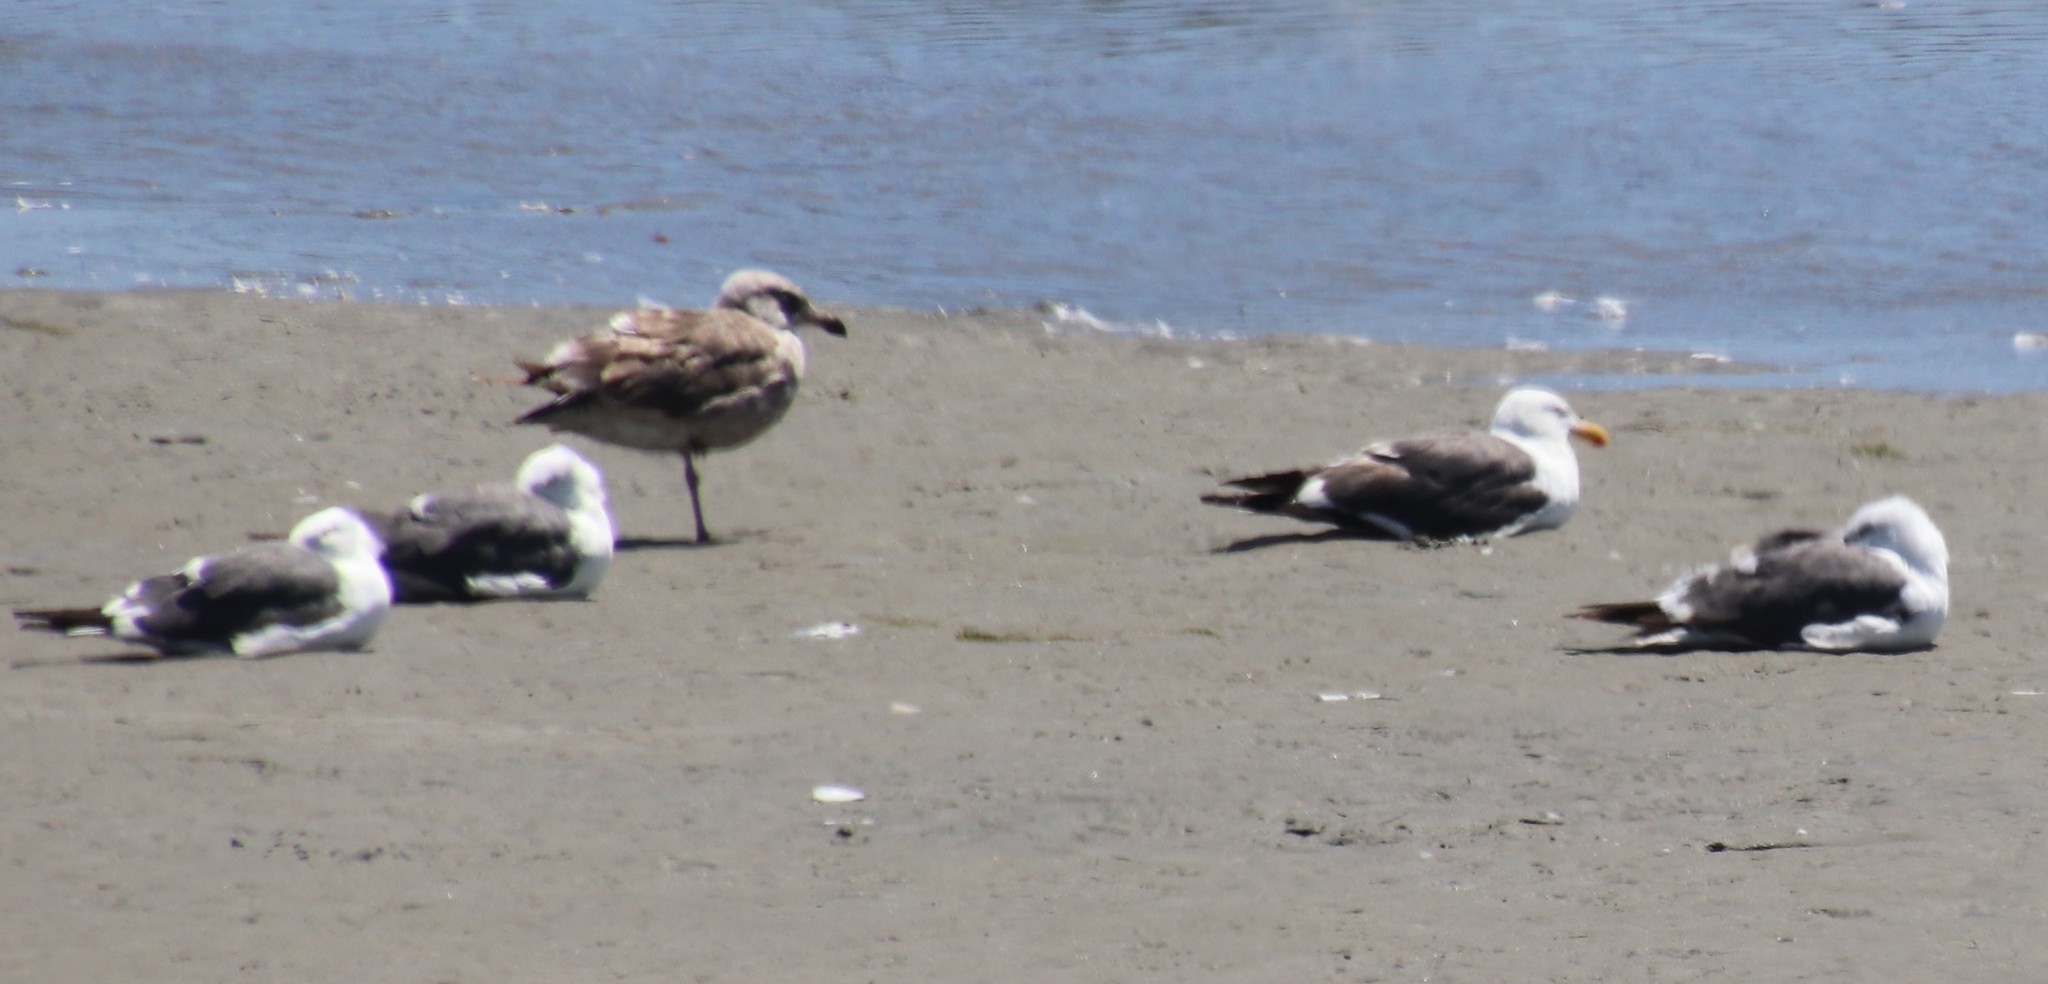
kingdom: Animalia
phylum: Chordata
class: Aves
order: Charadriiformes
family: Laridae
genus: Larus
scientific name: Larus occidentalis
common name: Western gull
